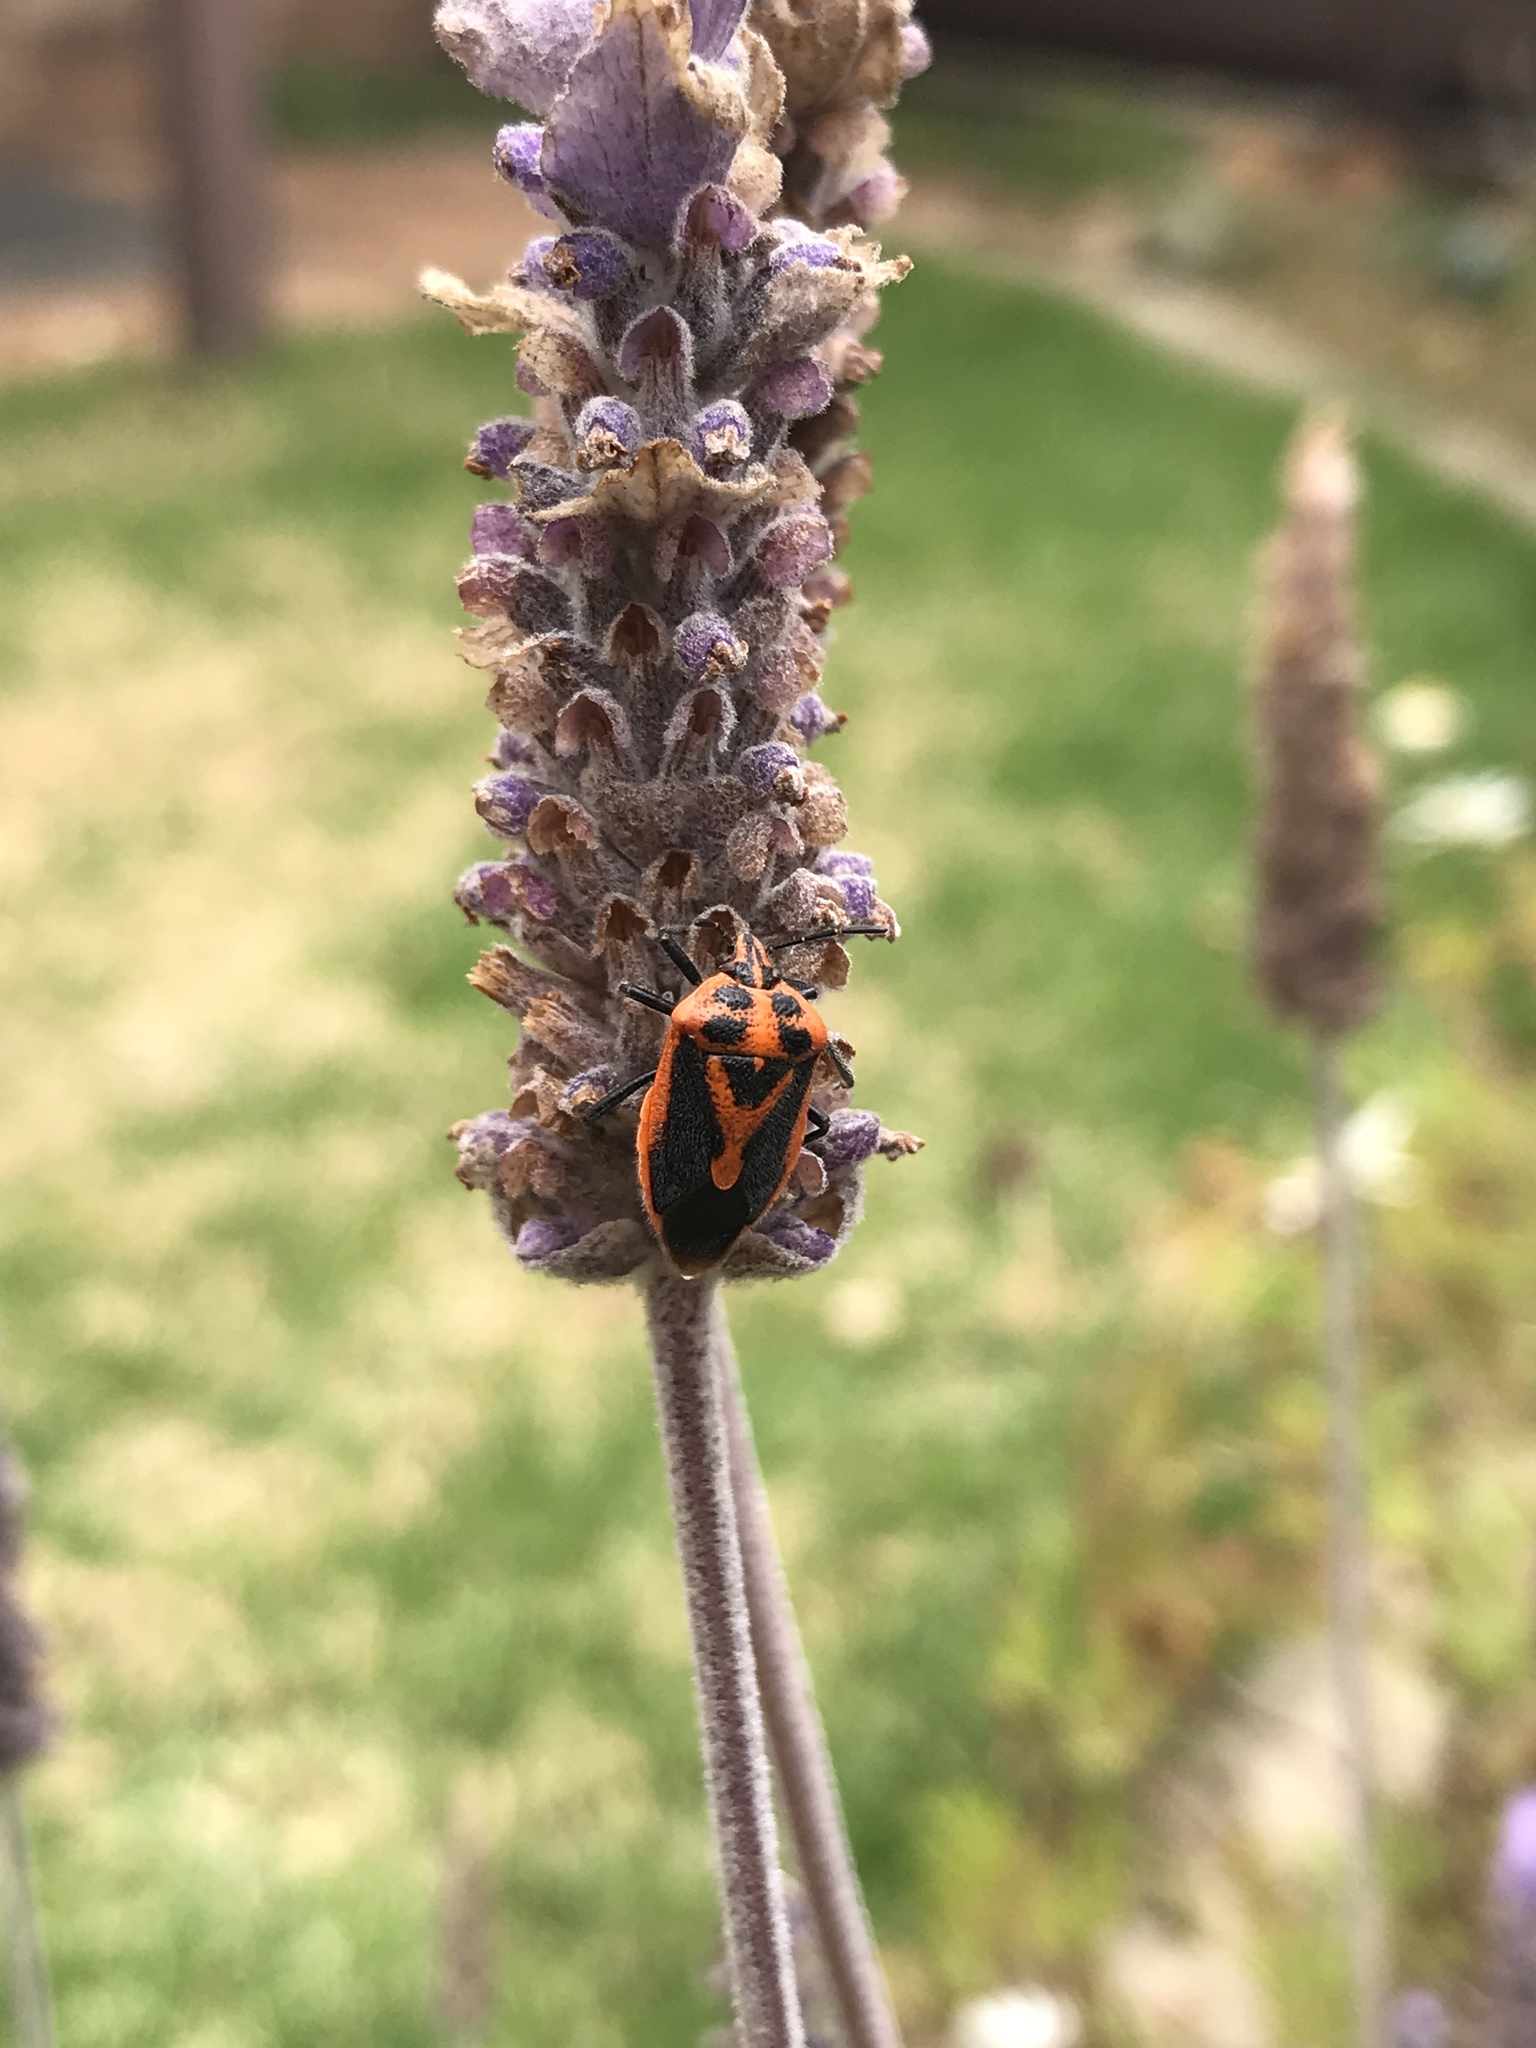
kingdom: Animalia
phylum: Arthropoda
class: Insecta
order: Hemiptera
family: Pentatomidae
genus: Agonoscelis
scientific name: Agonoscelis rutila
